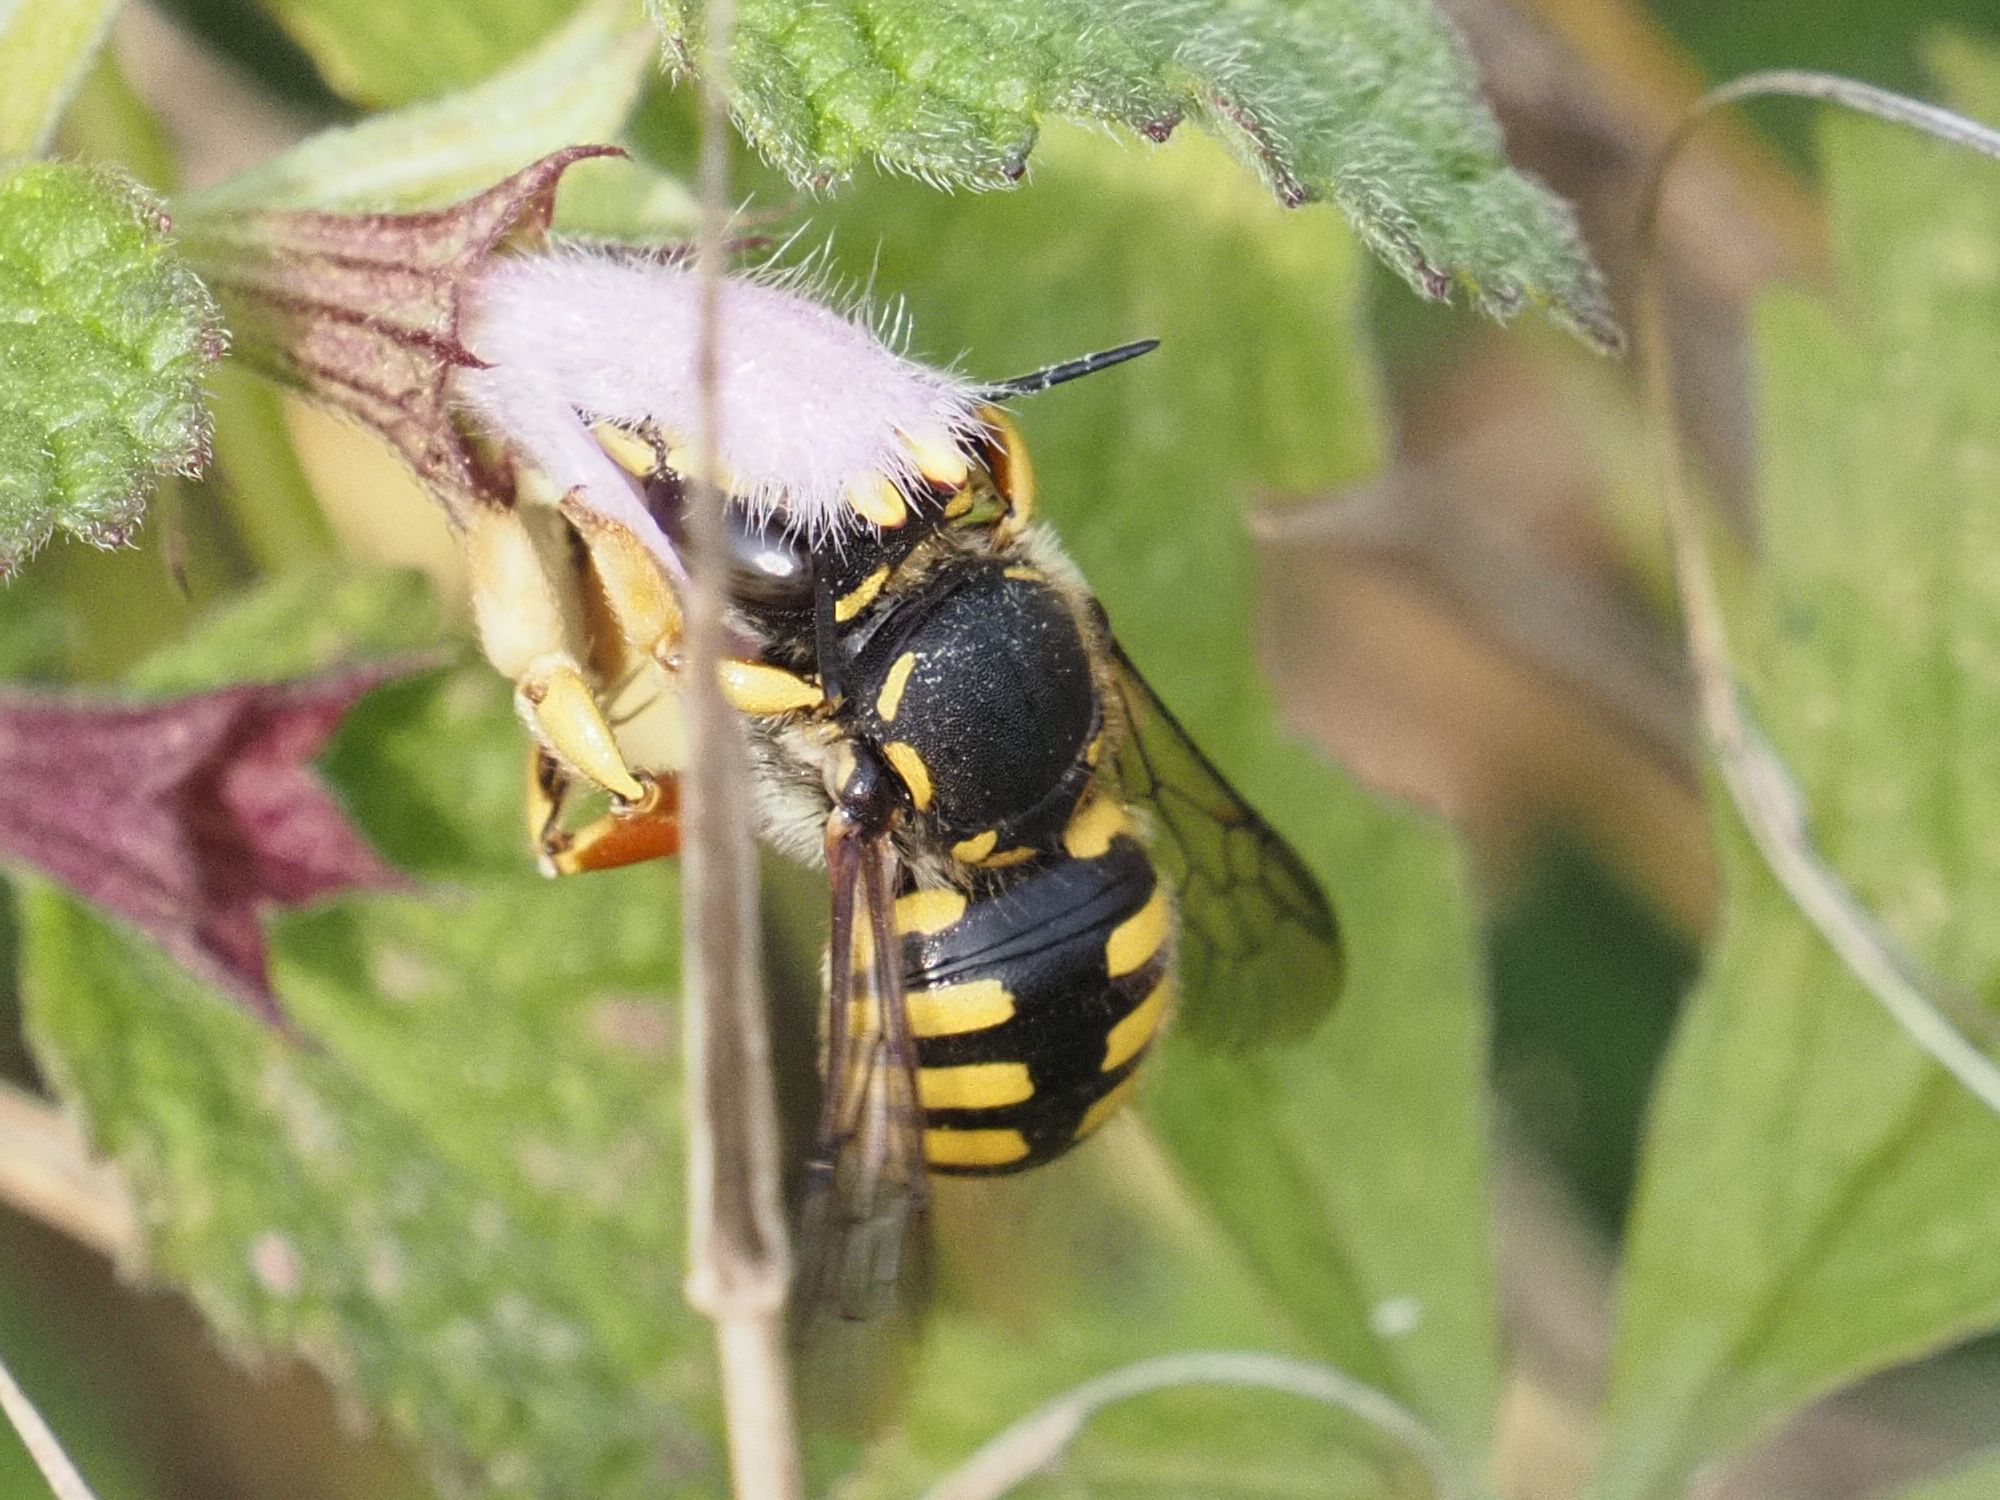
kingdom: Animalia
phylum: Arthropoda
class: Insecta
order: Hymenoptera
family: Megachilidae
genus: Anthidium
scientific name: Anthidium manicatum
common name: Wool carder bee
